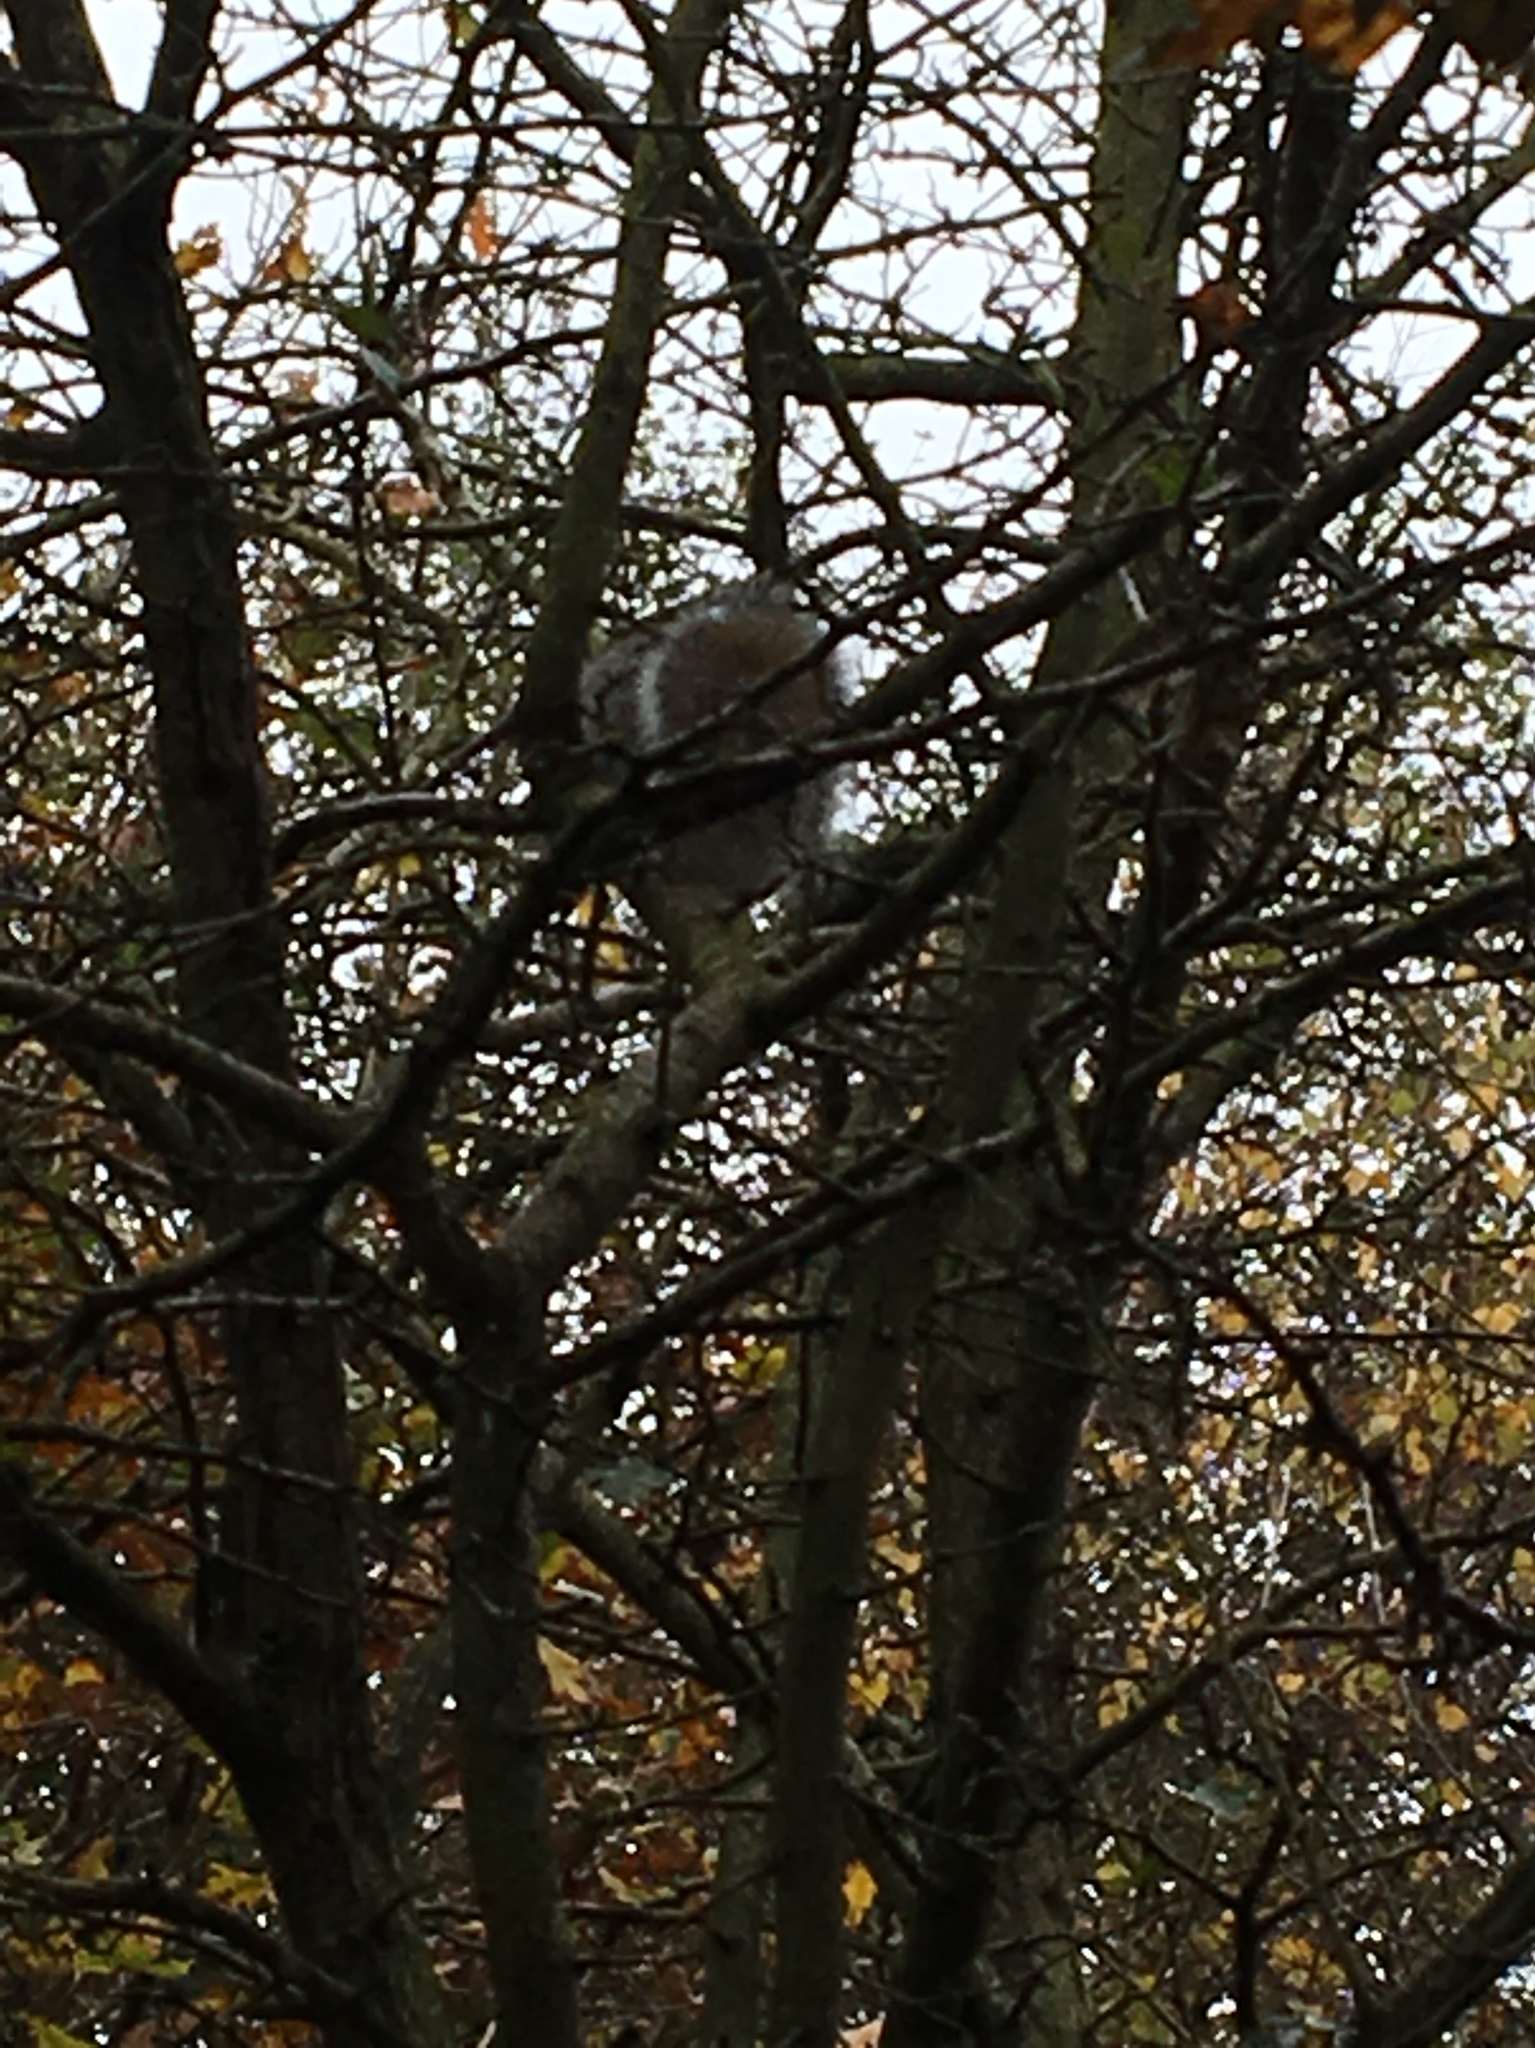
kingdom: Animalia
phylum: Chordata
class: Mammalia
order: Rodentia
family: Sciuridae
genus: Sciurus
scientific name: Sciurus carolinensis
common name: Eastern gray squirrel
